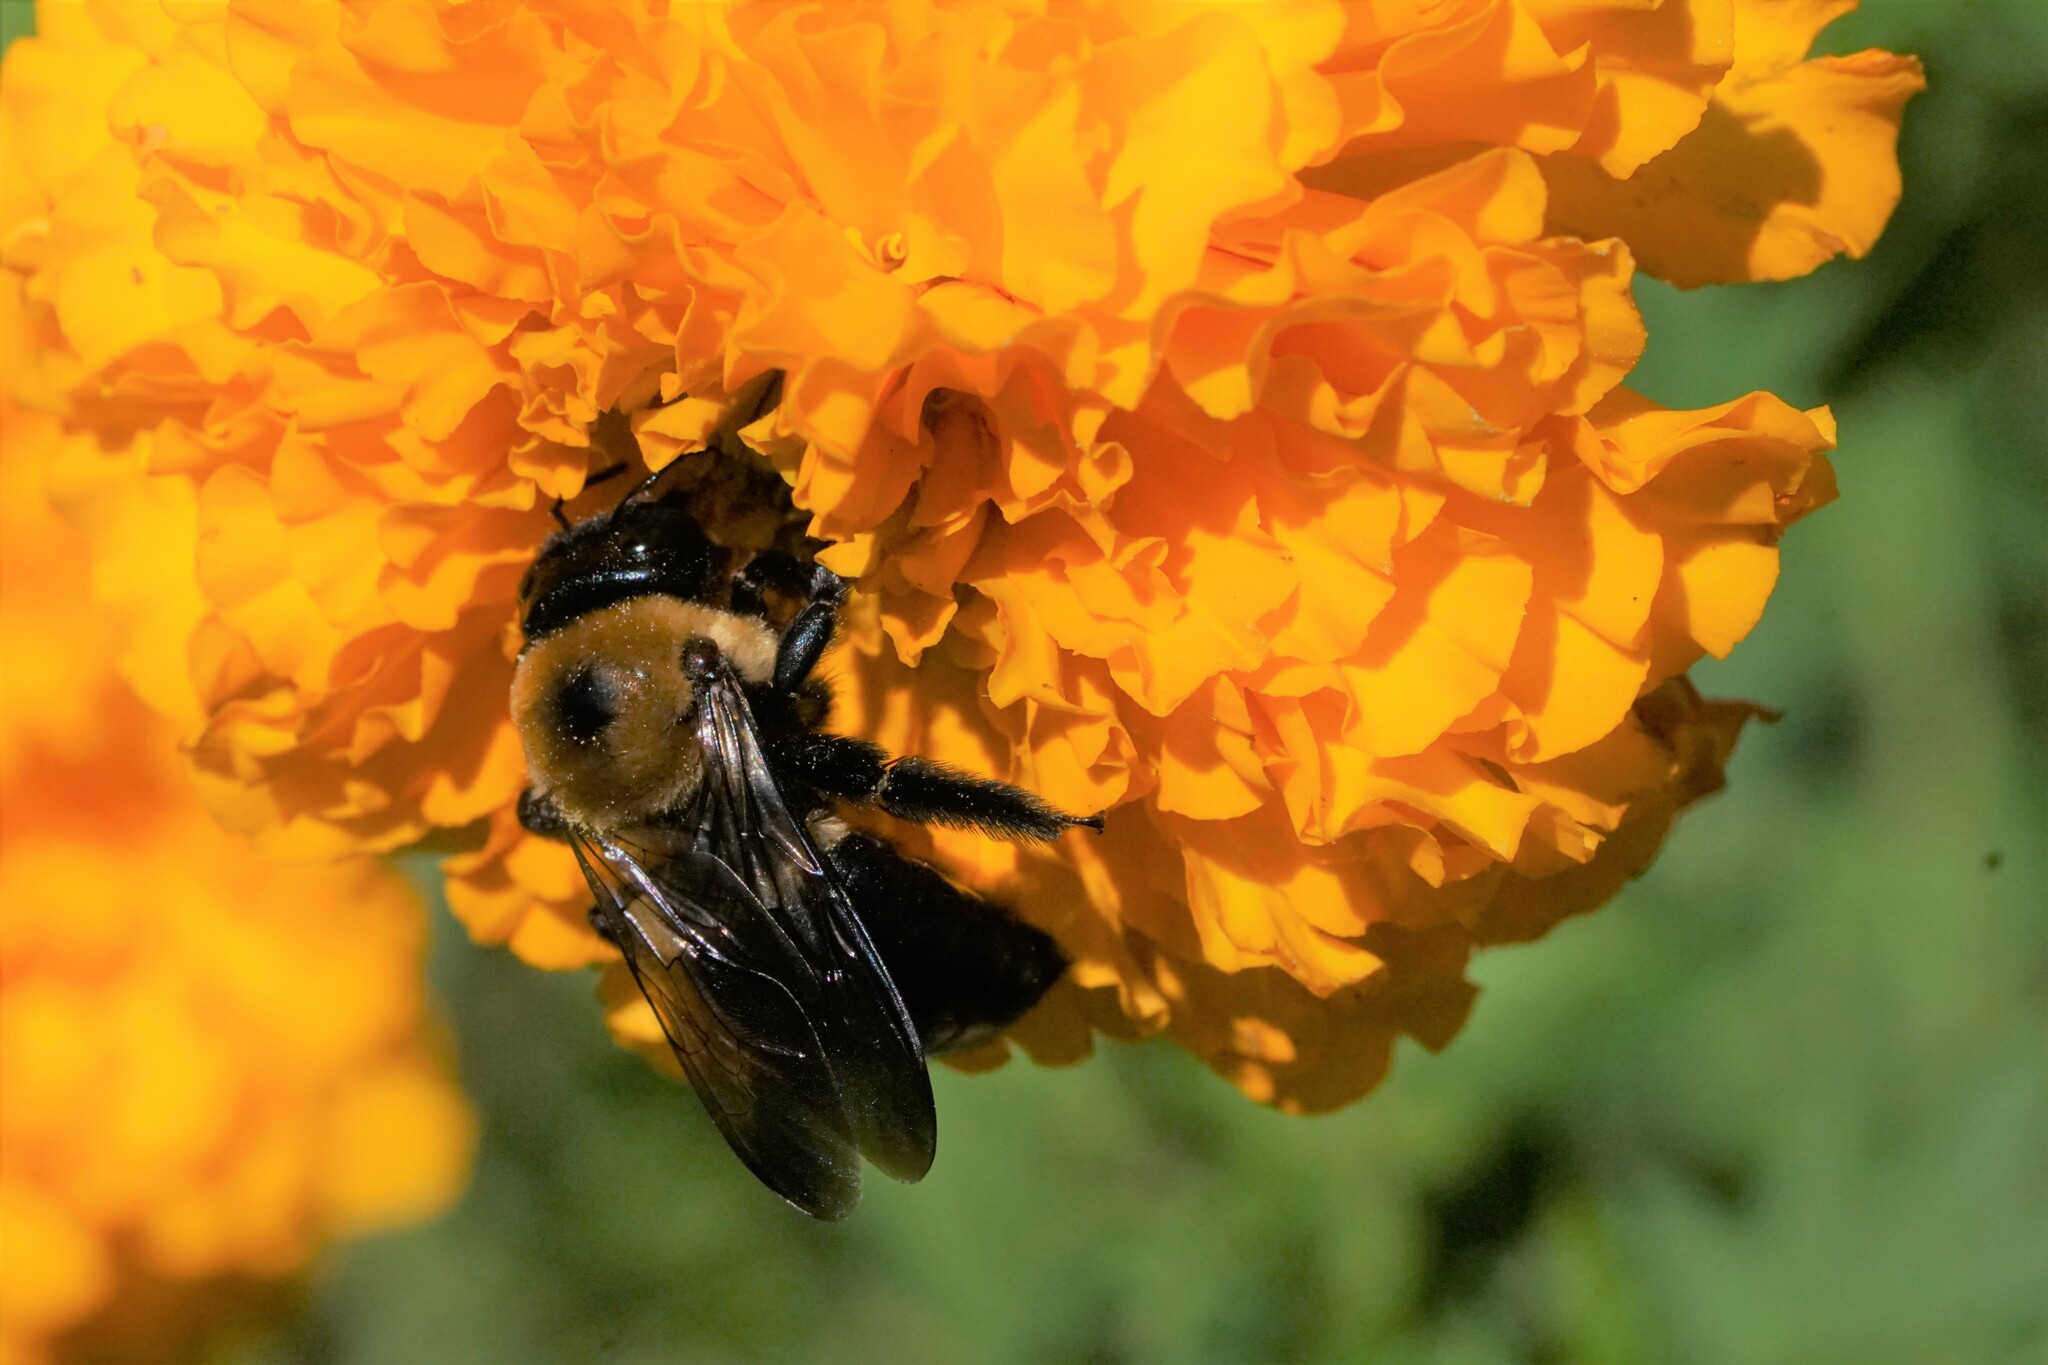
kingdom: Animalia
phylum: Arthropoda
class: Insecta
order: Hymenoptera
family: Apidae
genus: Xylocopa
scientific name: Xylocopa virginica
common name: Carpenter bee
